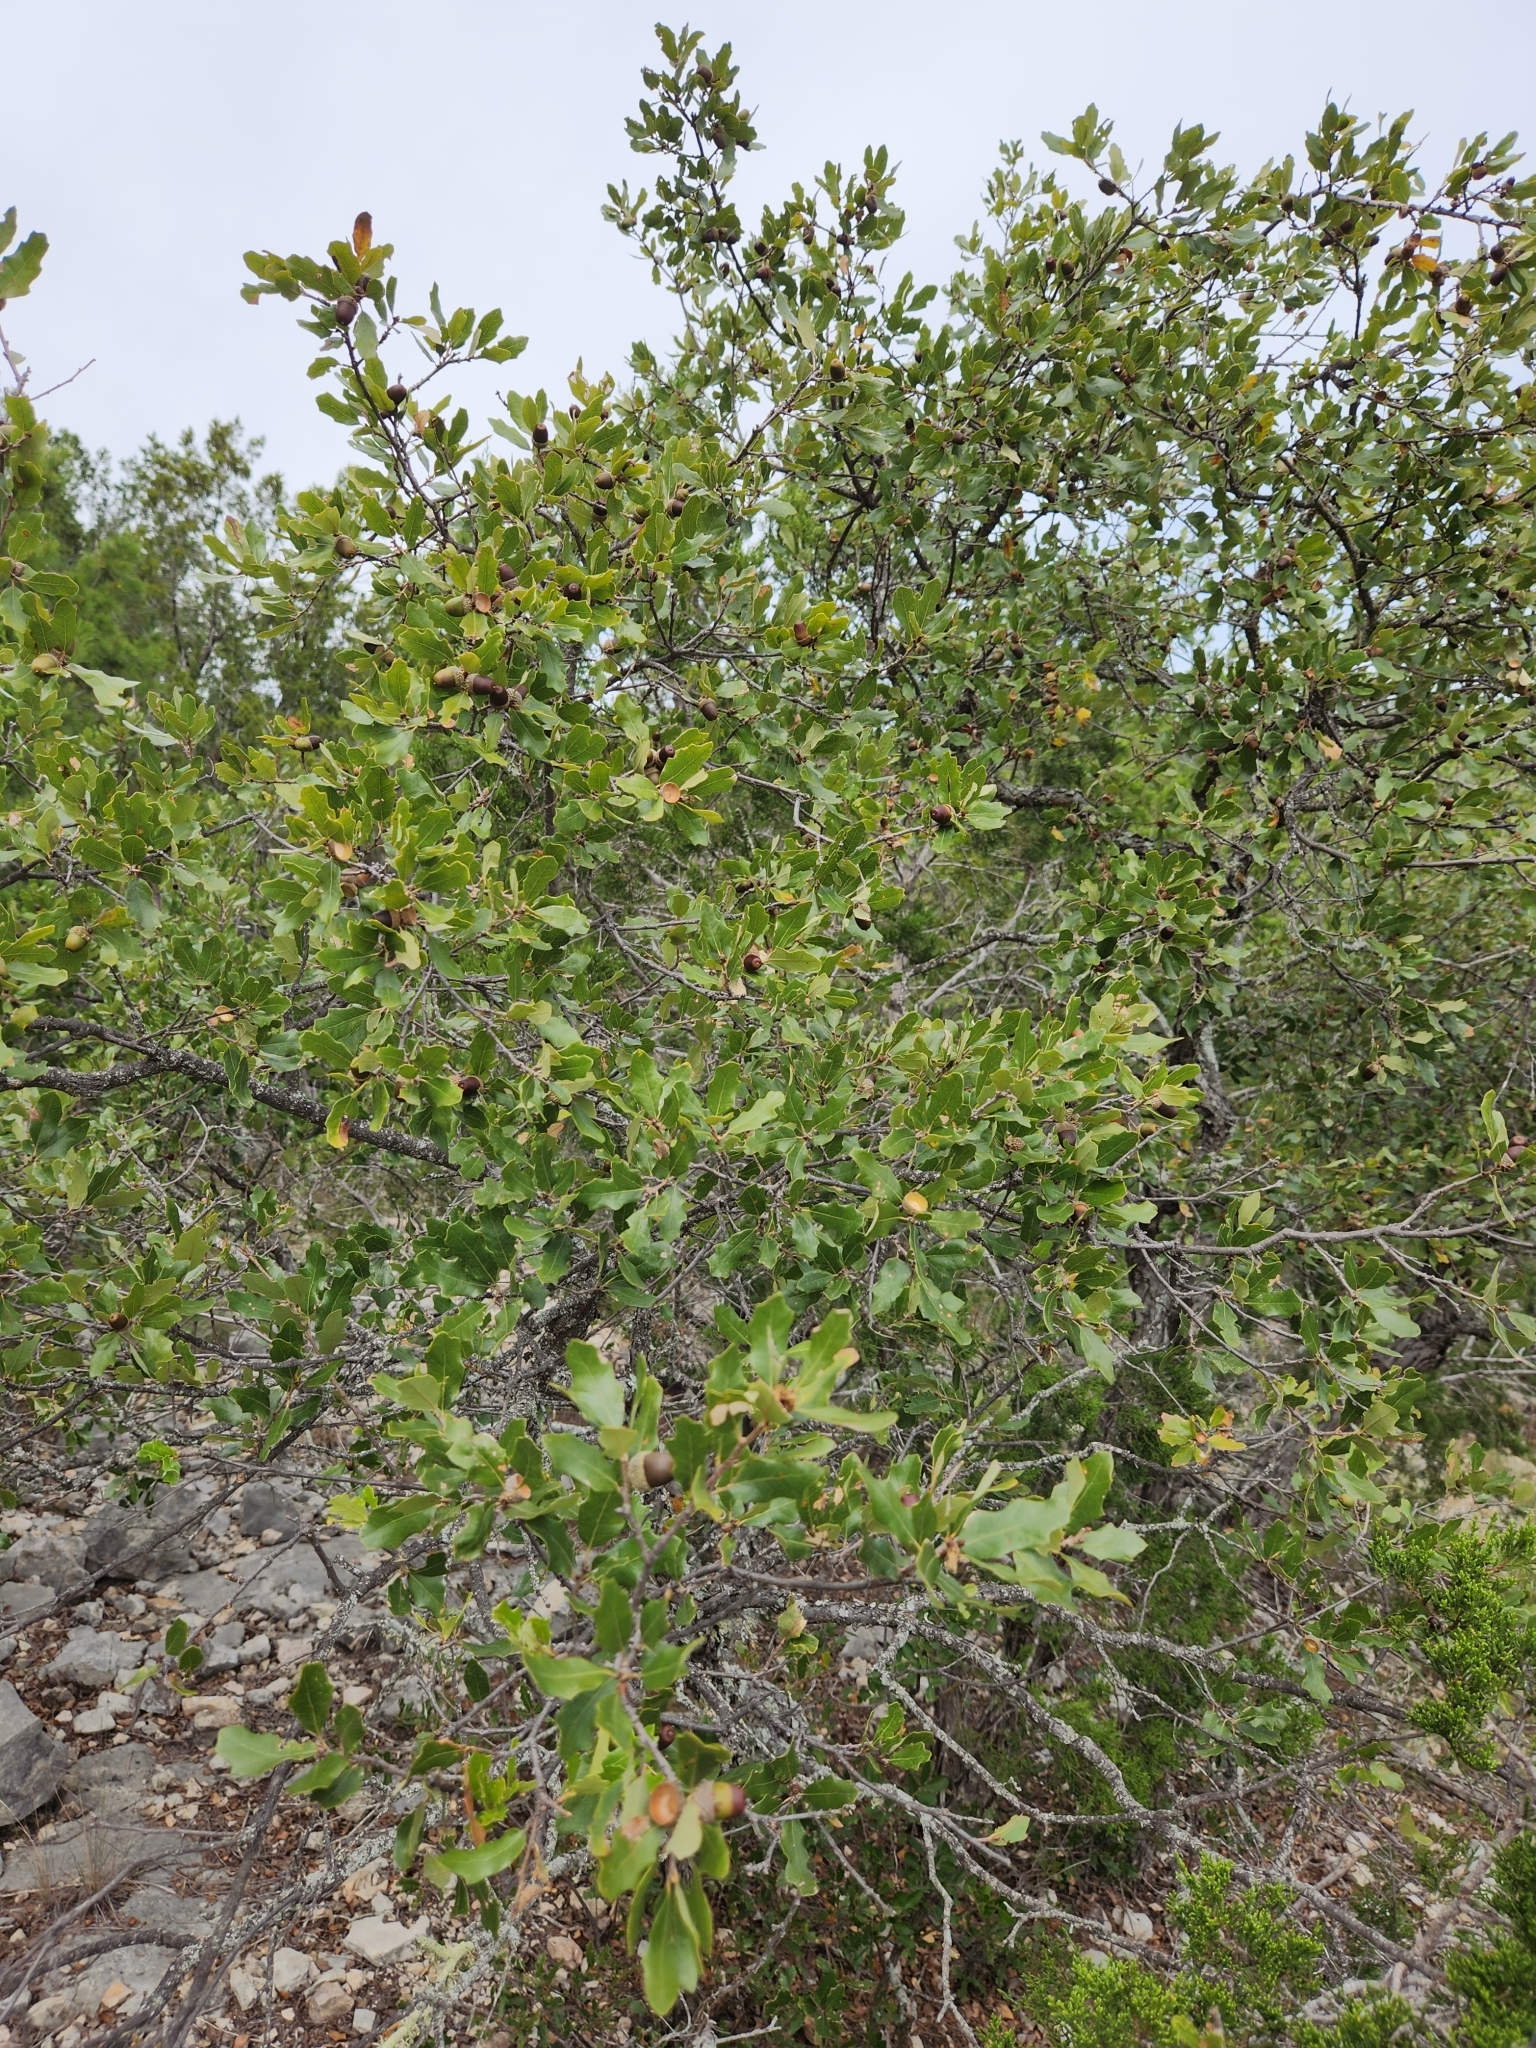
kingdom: Plantae
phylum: Tracheophyta
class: Magnoliopsida
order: Fagales
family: Fagaceae
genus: Quercus
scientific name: Quercus vaseyana
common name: Sandpaper oak
